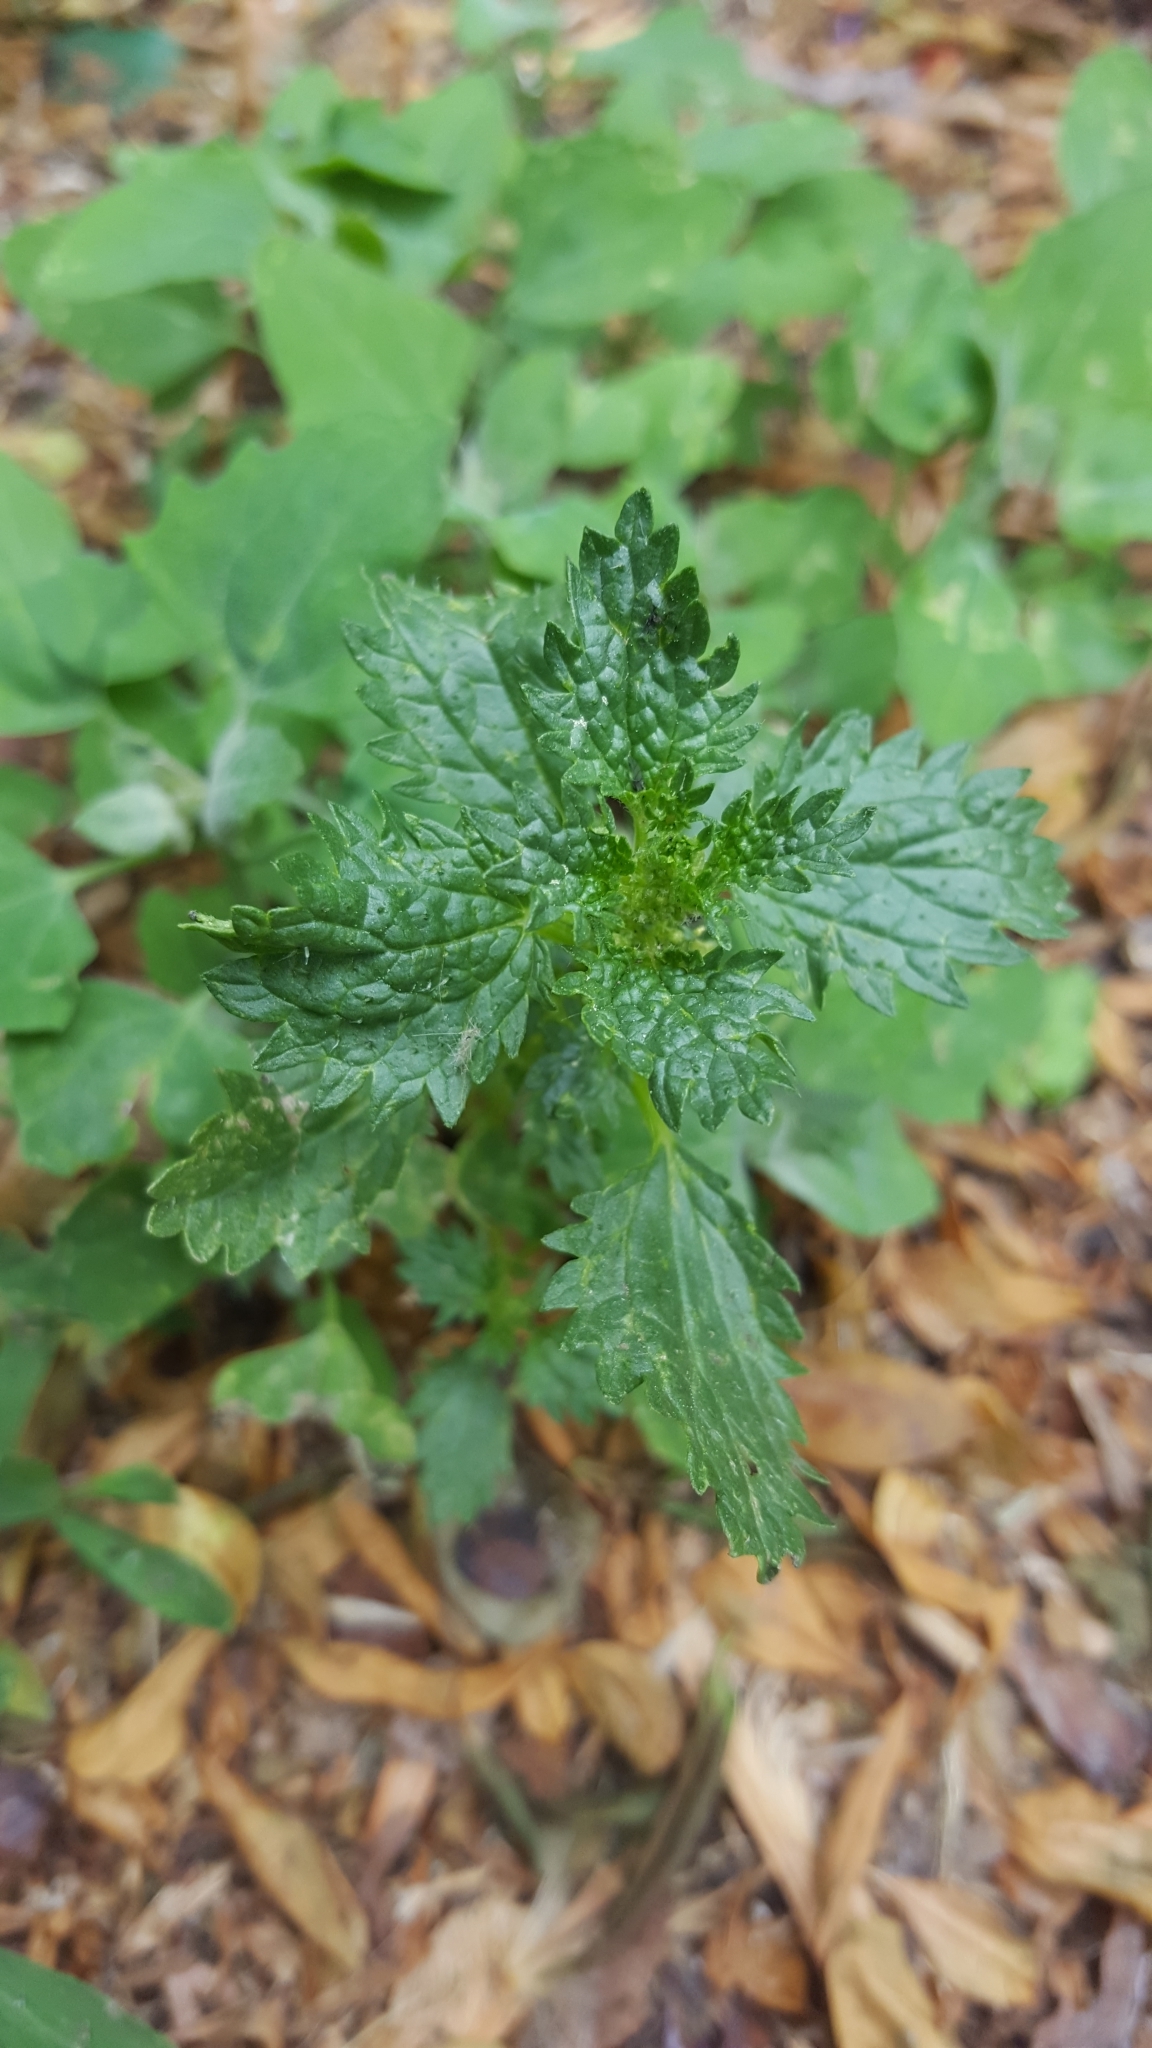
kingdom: Plantae
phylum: Tracheophyta
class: Magnoliopsida
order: Rosales
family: Urticaceae
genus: Urtica
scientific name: Urtica urens
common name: Dwarf nettle
